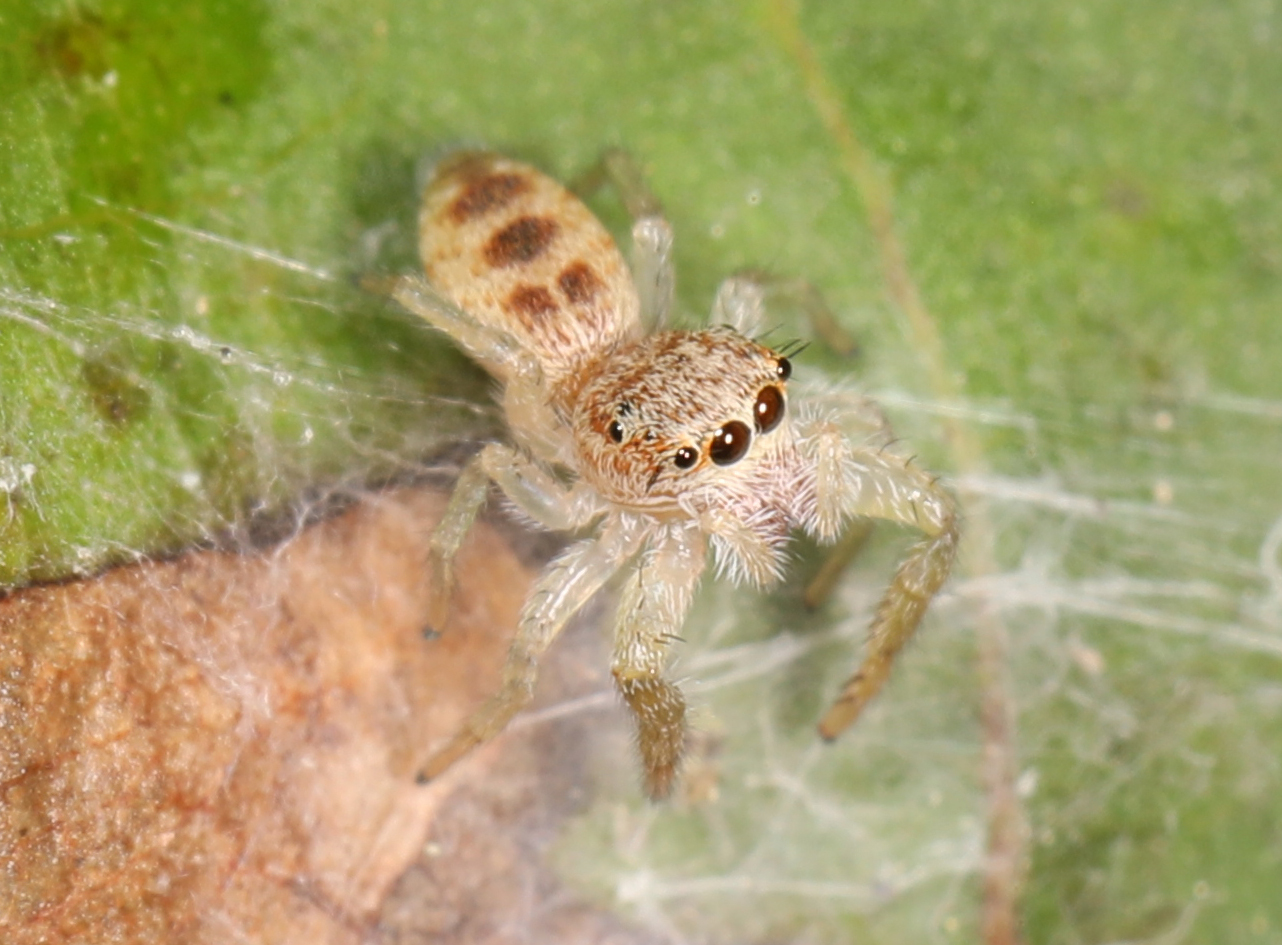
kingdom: Animalia
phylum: Arthropoda
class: Arachnida
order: Araneae
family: Salticidae
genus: Hentzia
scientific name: Hentzia mitrata
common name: White-jawed jumping spider
